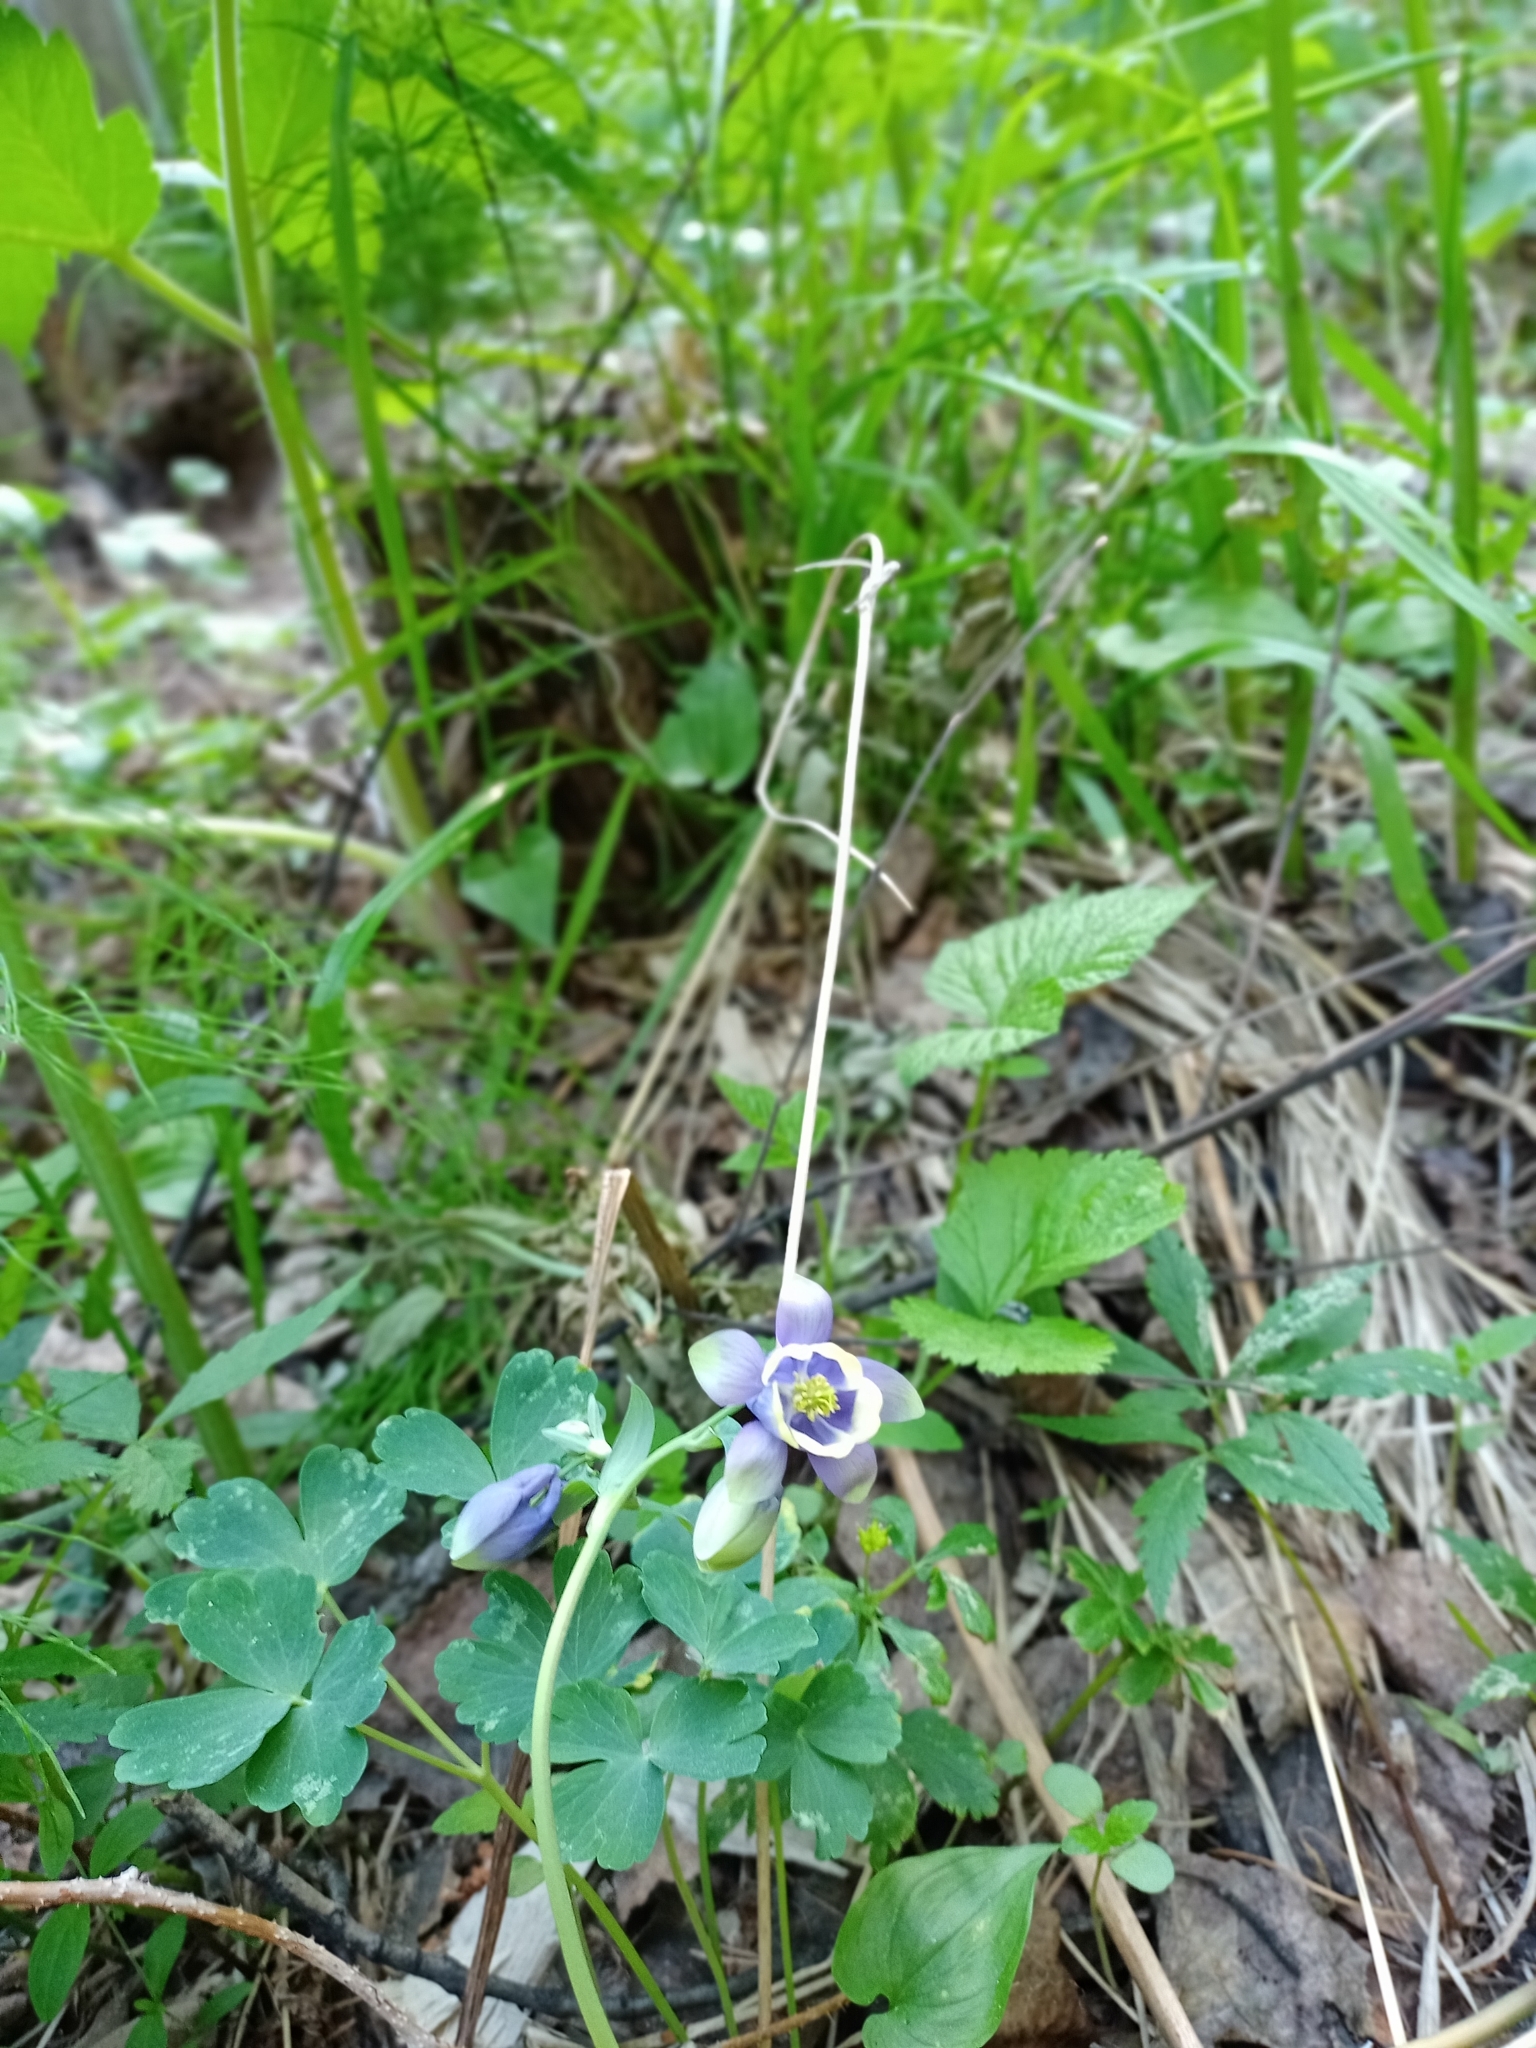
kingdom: Plantae
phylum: Tracheophyta
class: Magnoliopsida
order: Ranunculales
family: Ranunculaceae
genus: Aquilegia
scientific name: Aquilegia sibirica
